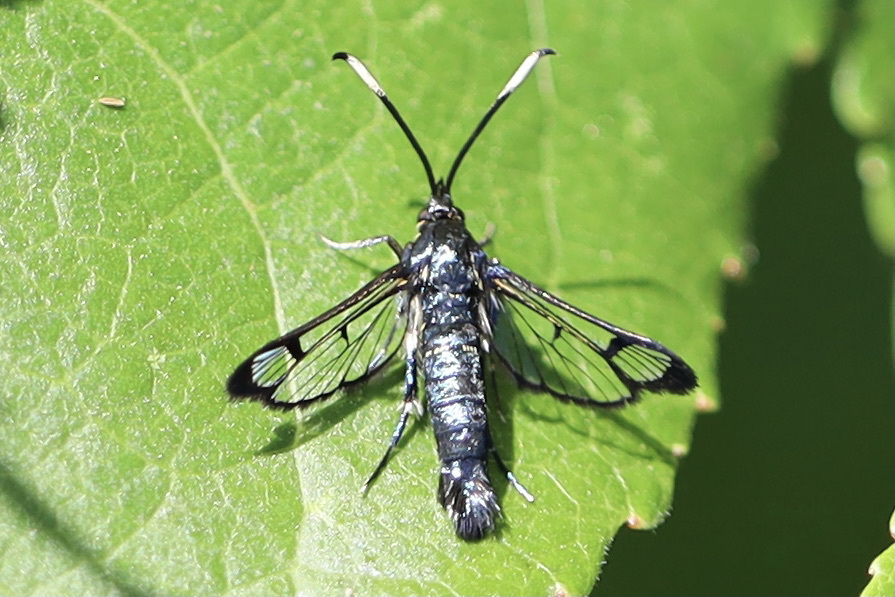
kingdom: Animalia
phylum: Arthropoda
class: Insecta
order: Lepidoptera
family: Sesiidae
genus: Synanthedon
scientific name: Synanthedon albicornis
